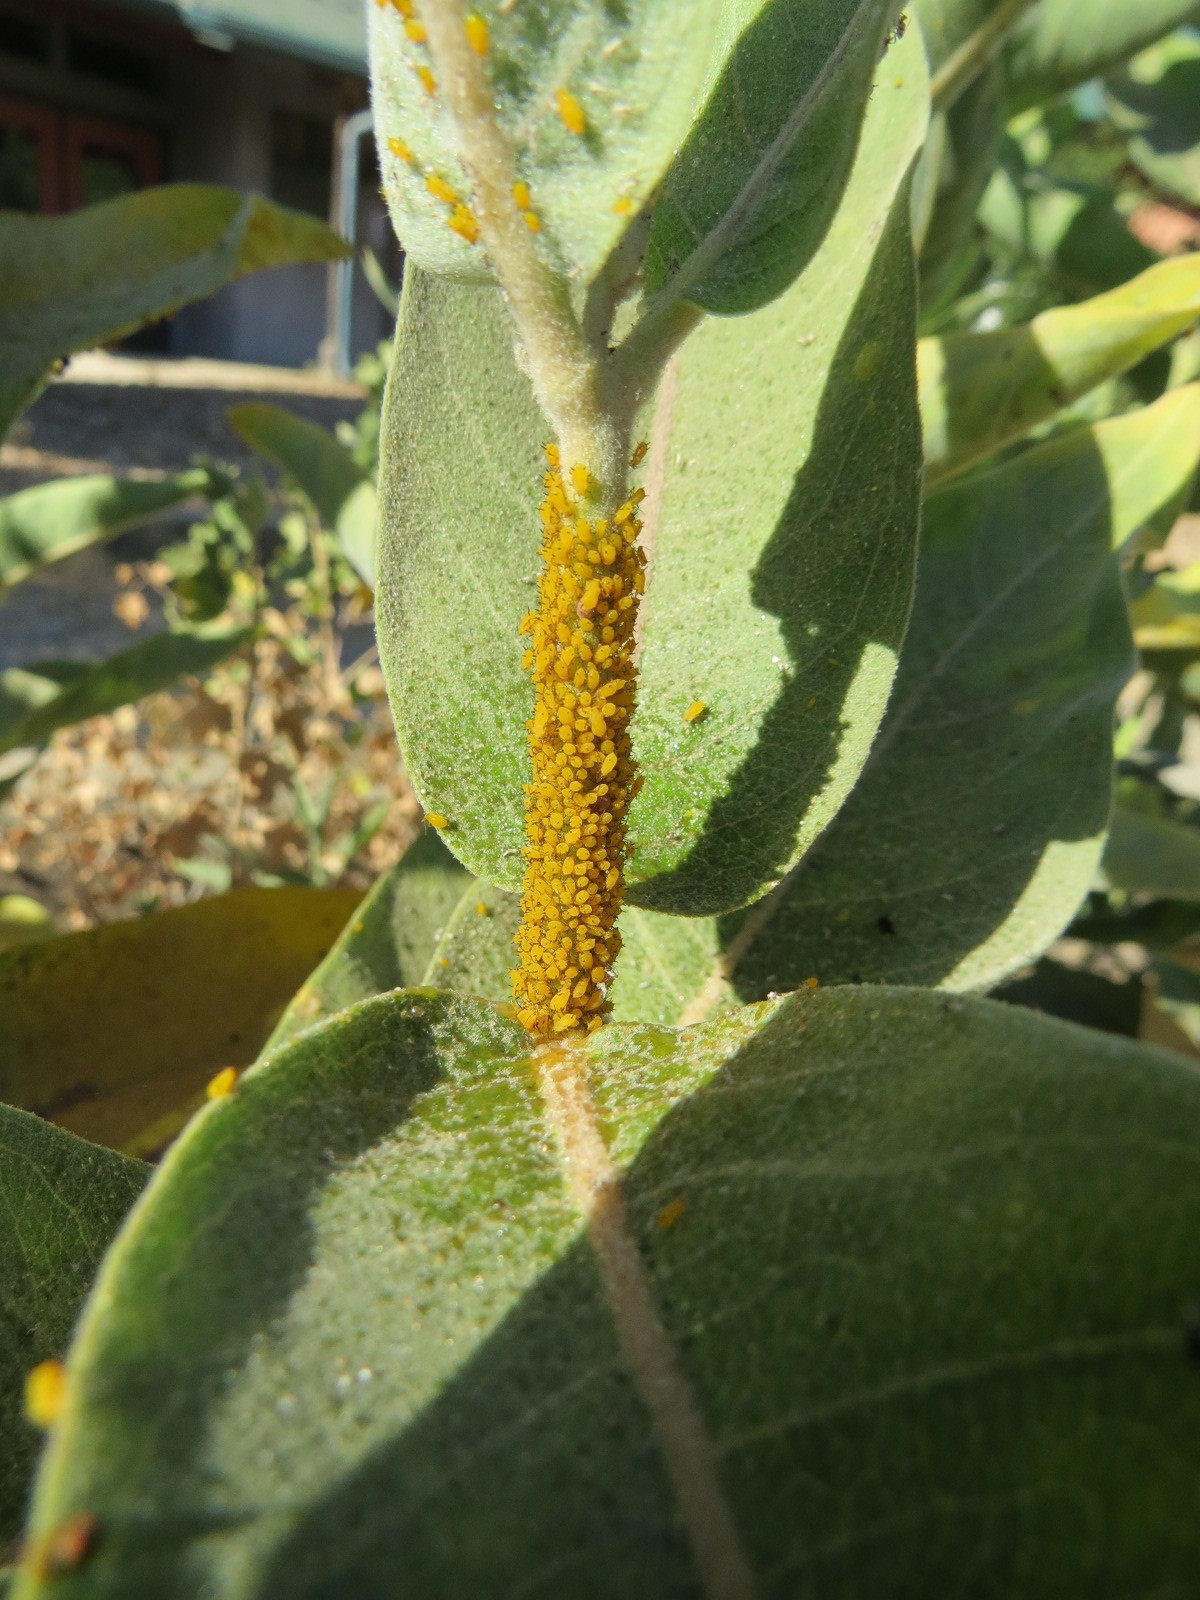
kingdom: Animalia
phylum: Arthropoda
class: Insecta
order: Hemiptera
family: Aphididae
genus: Aphis
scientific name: Aphis nerii
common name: Oleander aphid
